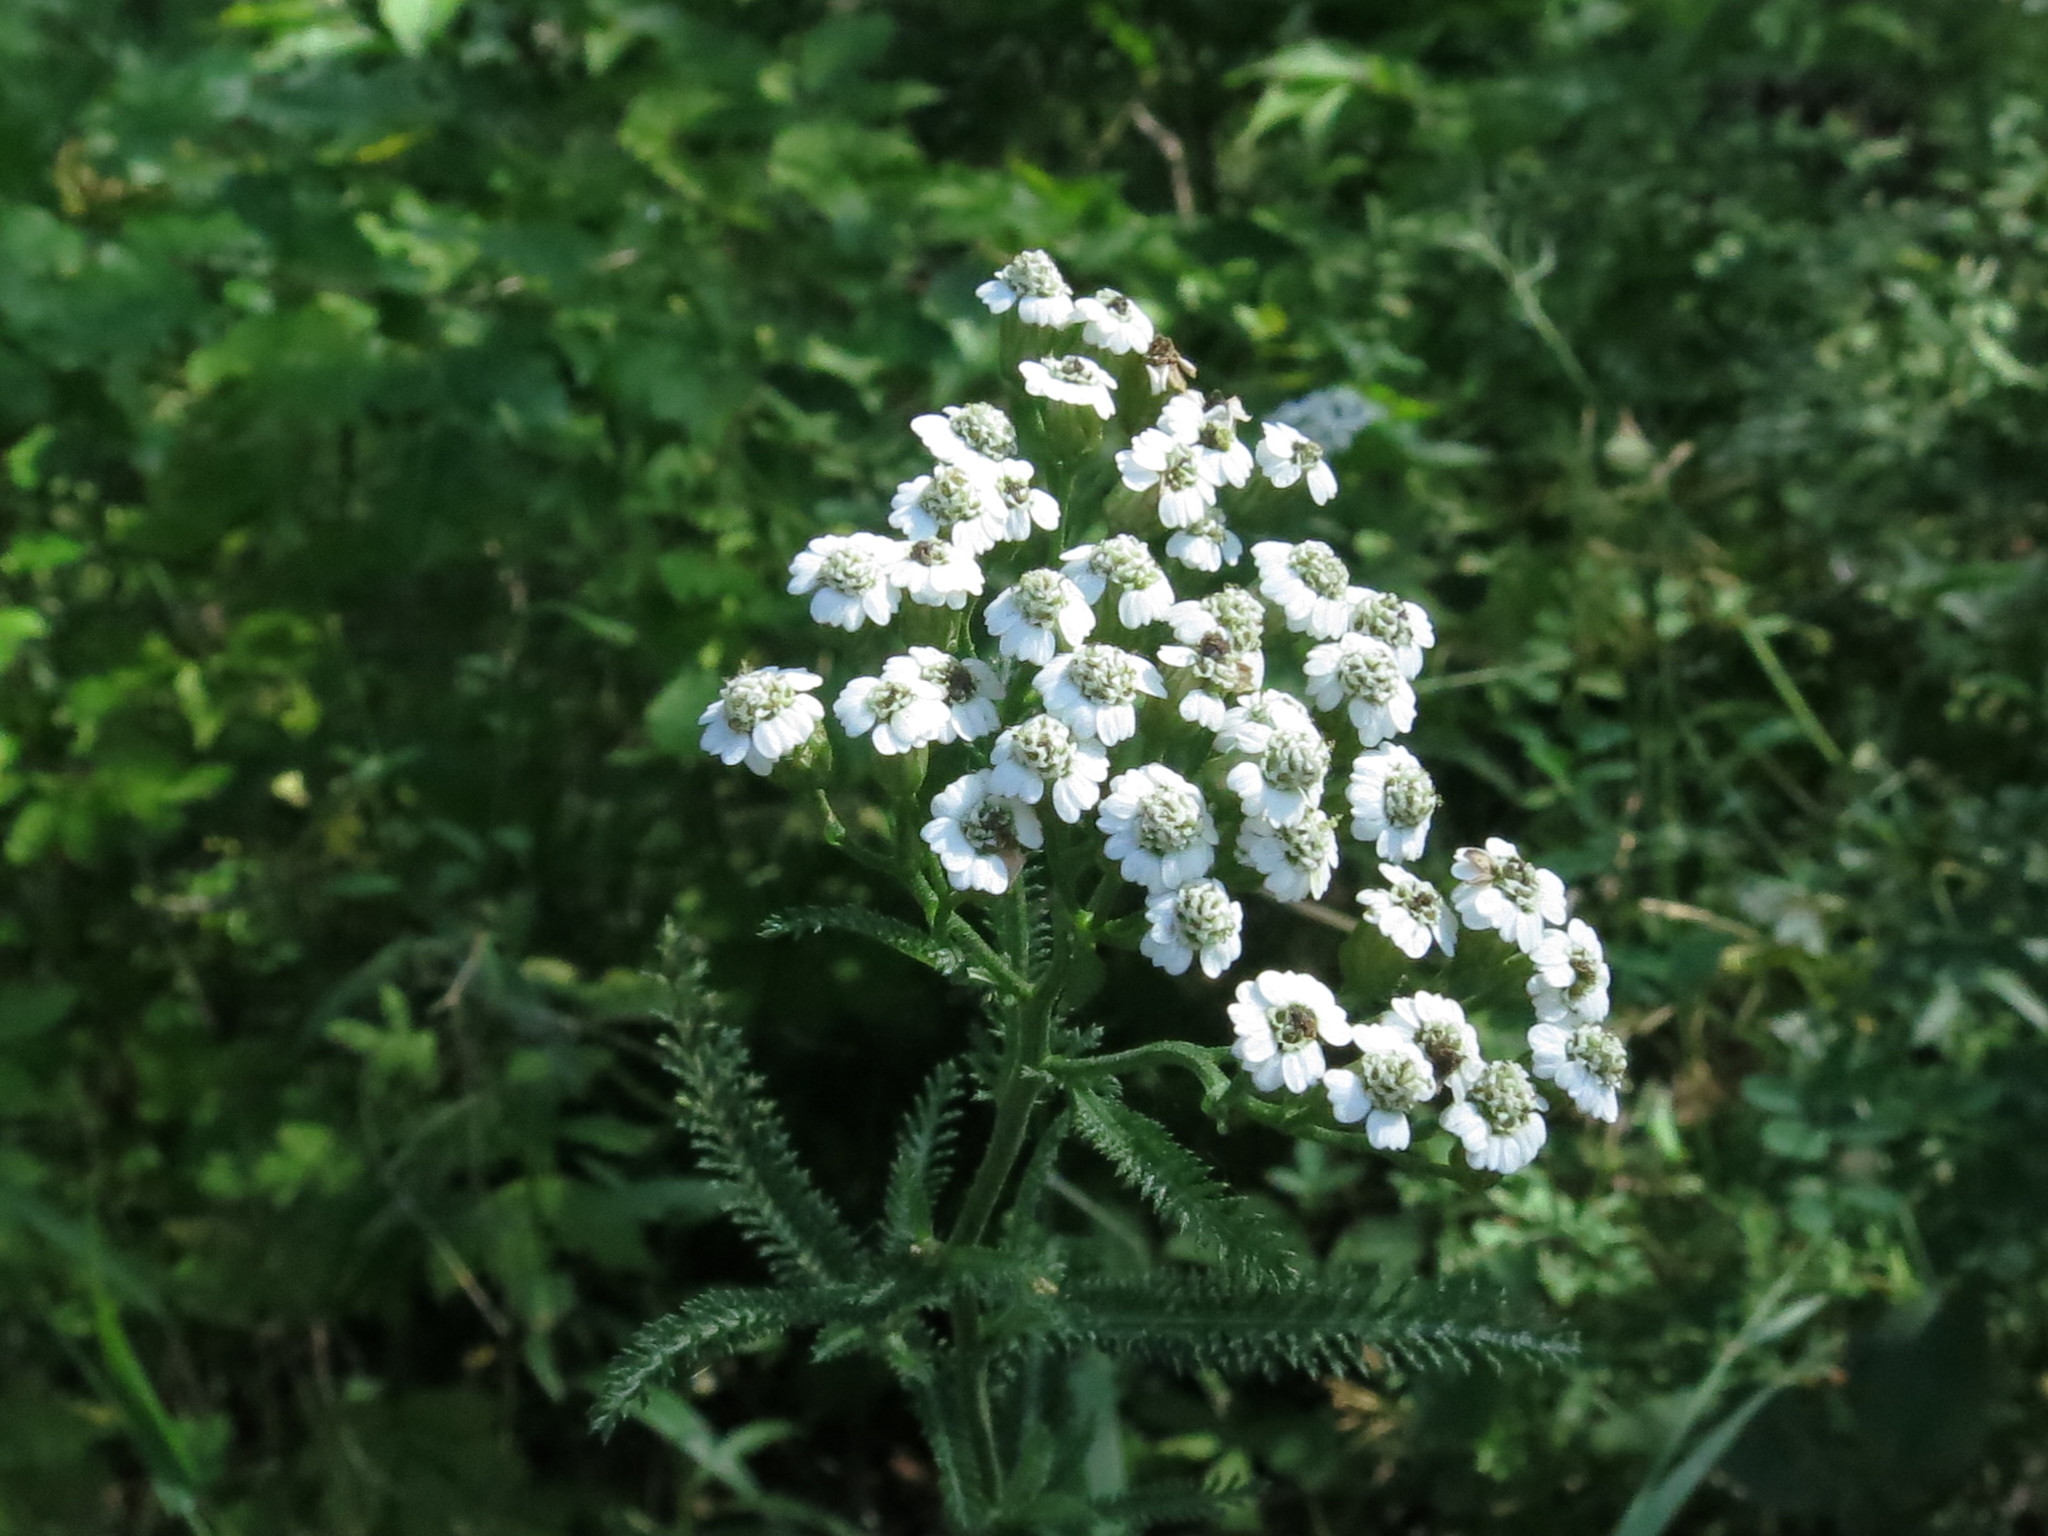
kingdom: Plantae
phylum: Tracheophyta
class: Magnoliopsida
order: Asterales
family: Asteraceae
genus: Achillea
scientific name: Achillea ptarmicoides
